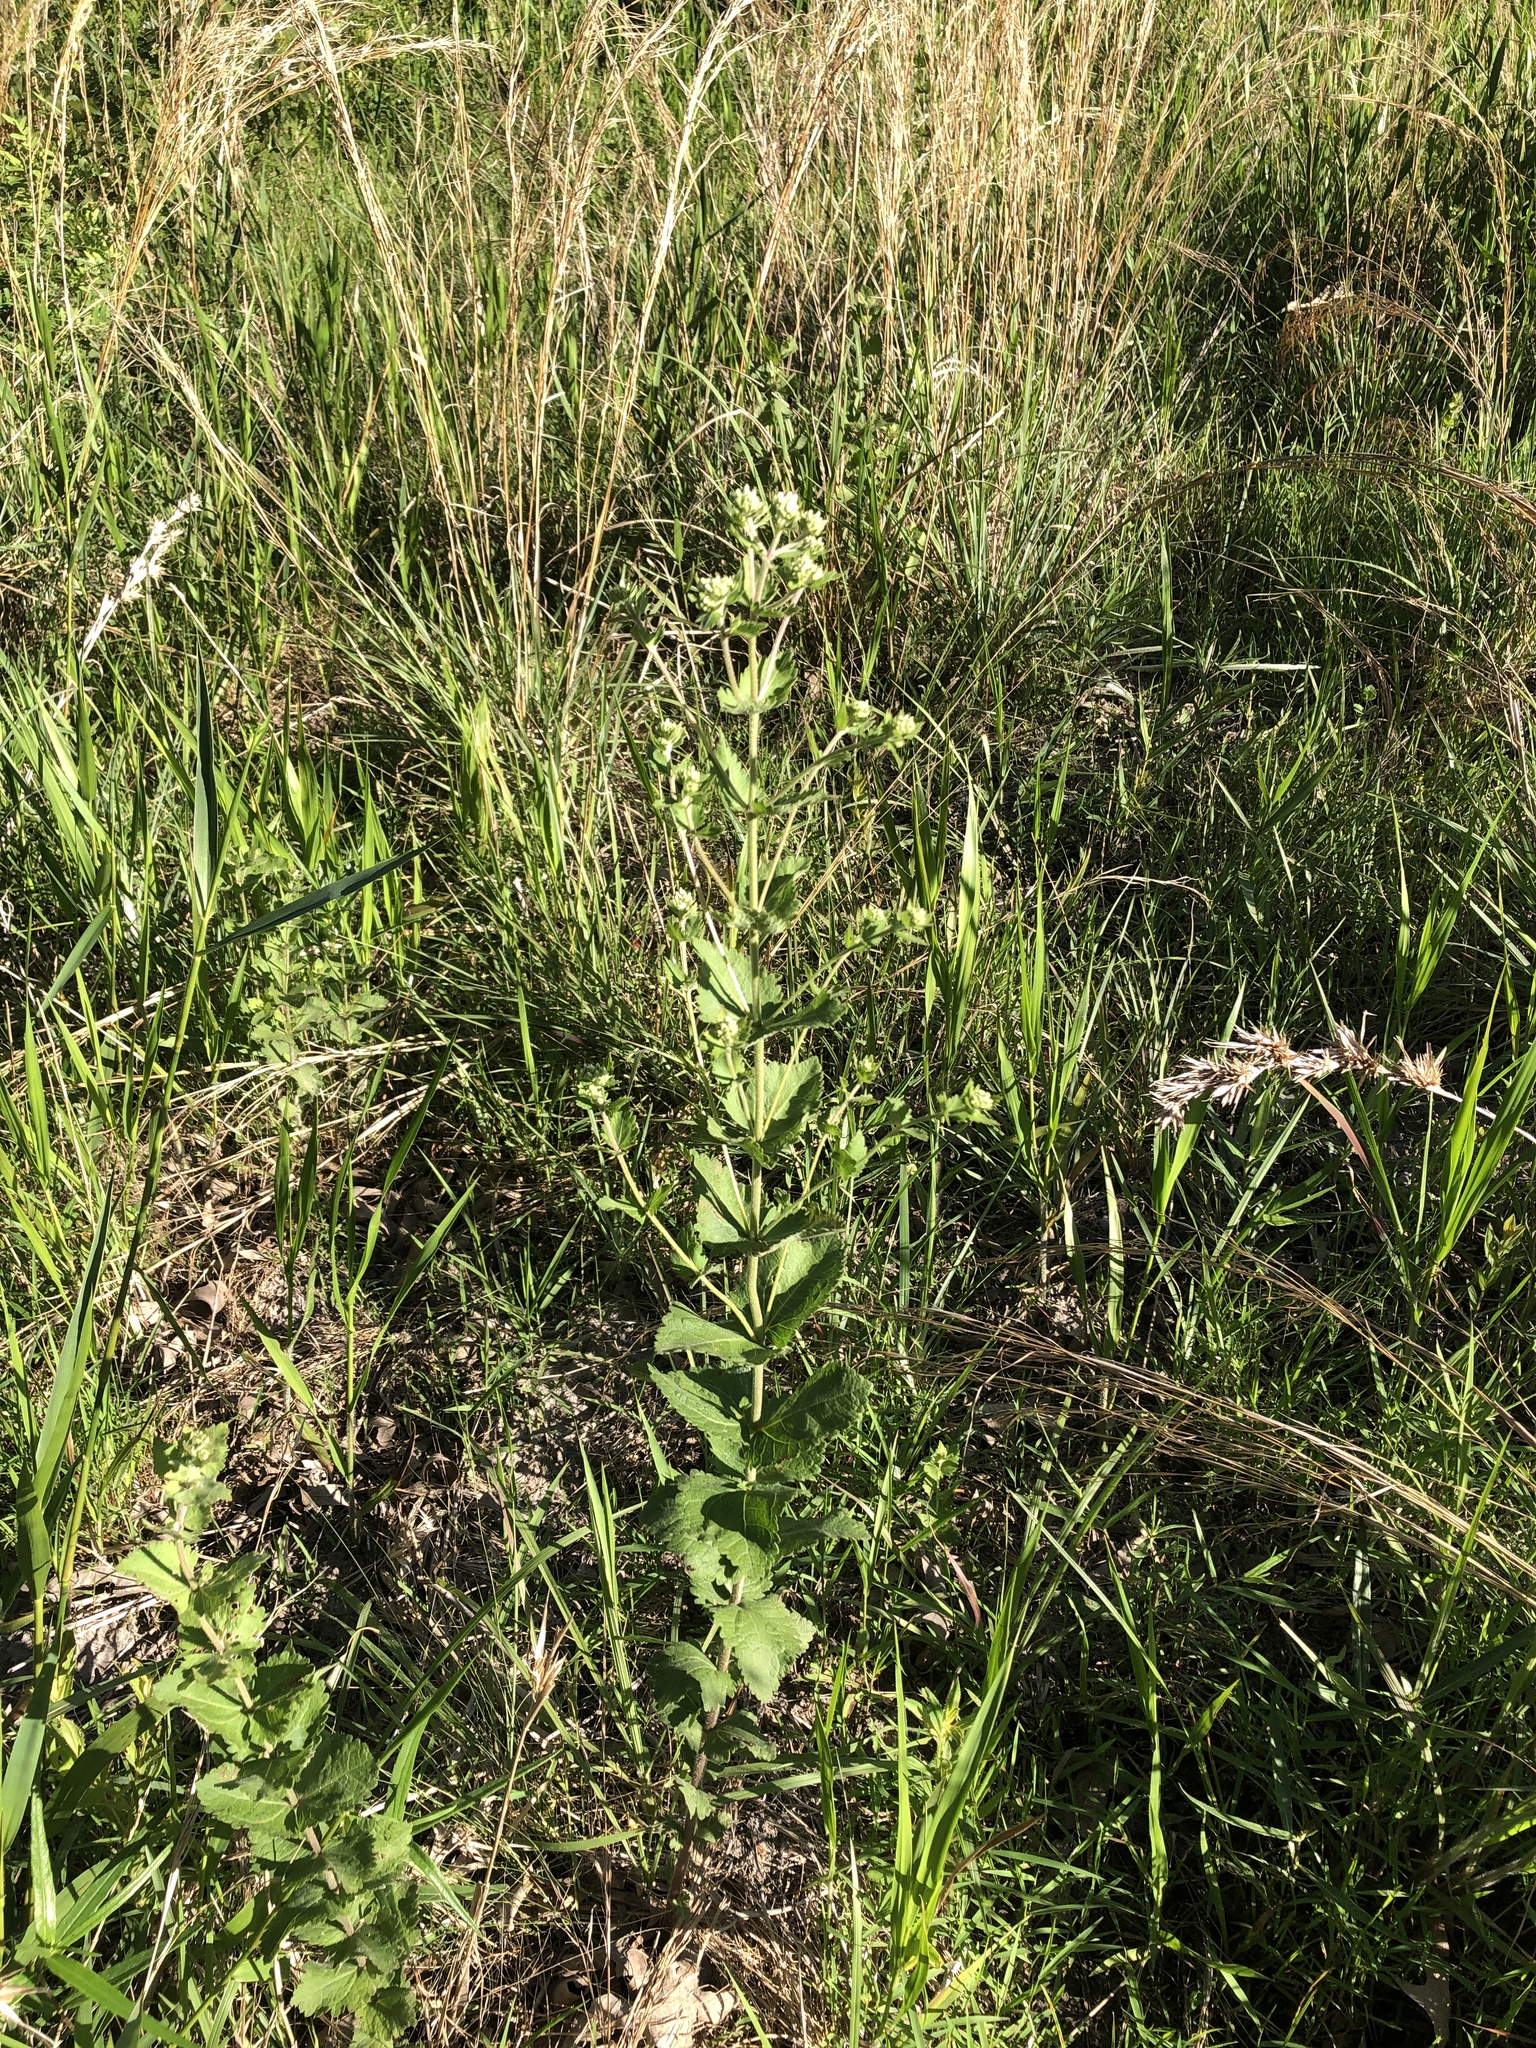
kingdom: Plantae
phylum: Tracheophyta
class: Magnoliopsida
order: Asterales
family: Asteraceae
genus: Eupatorium
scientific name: Eupatorium rotundifolium
